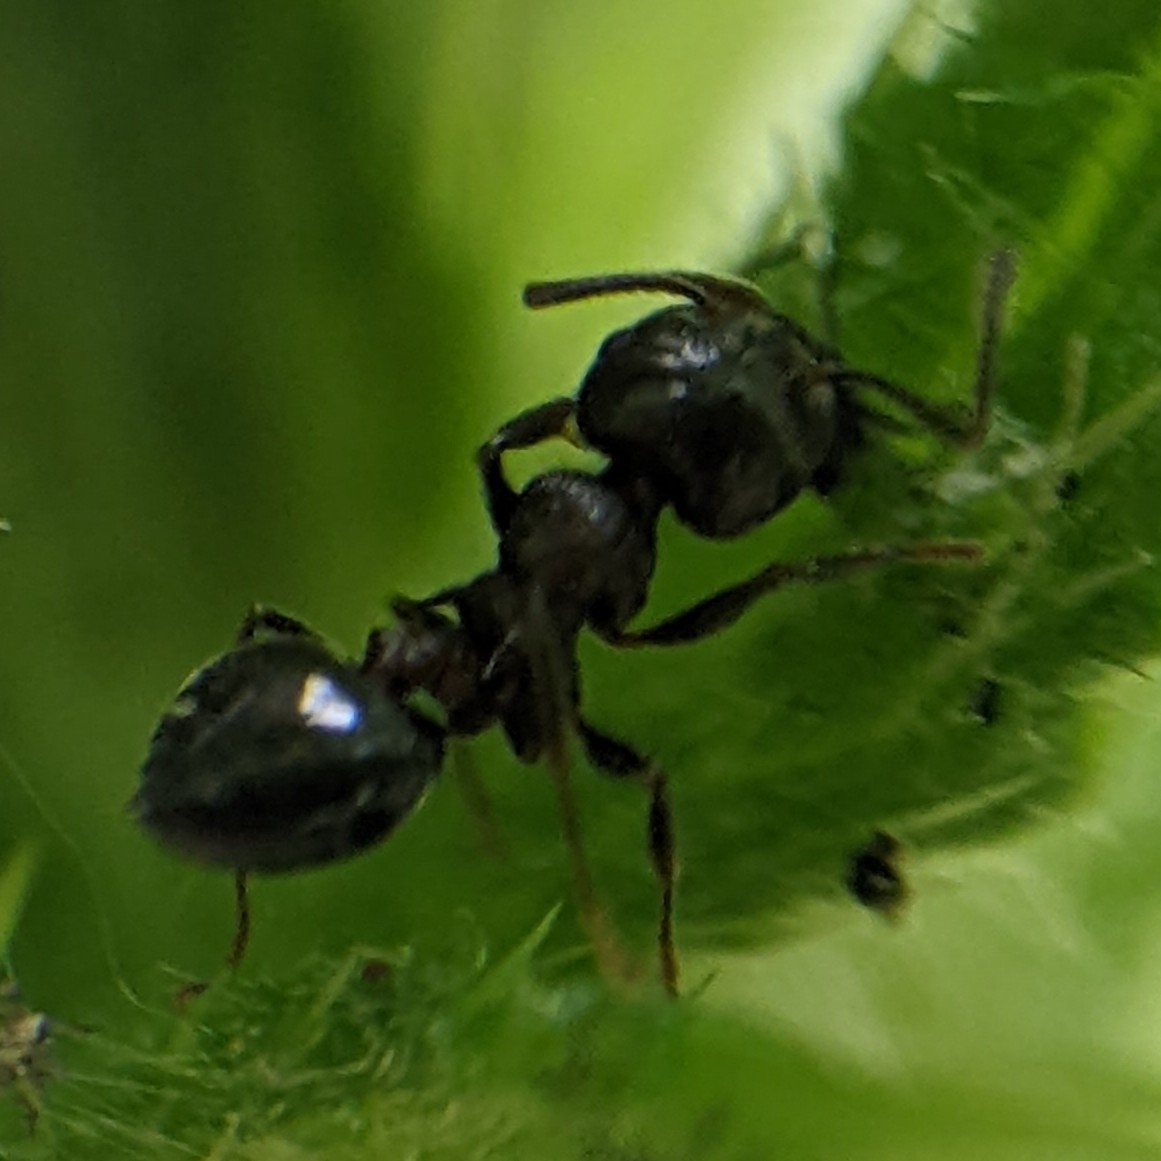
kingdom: Animalia
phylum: Arthropoda
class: Insecta
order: Hymenoptera
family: Formicidae
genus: Crematogaster
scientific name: Crematogaster cerasi
